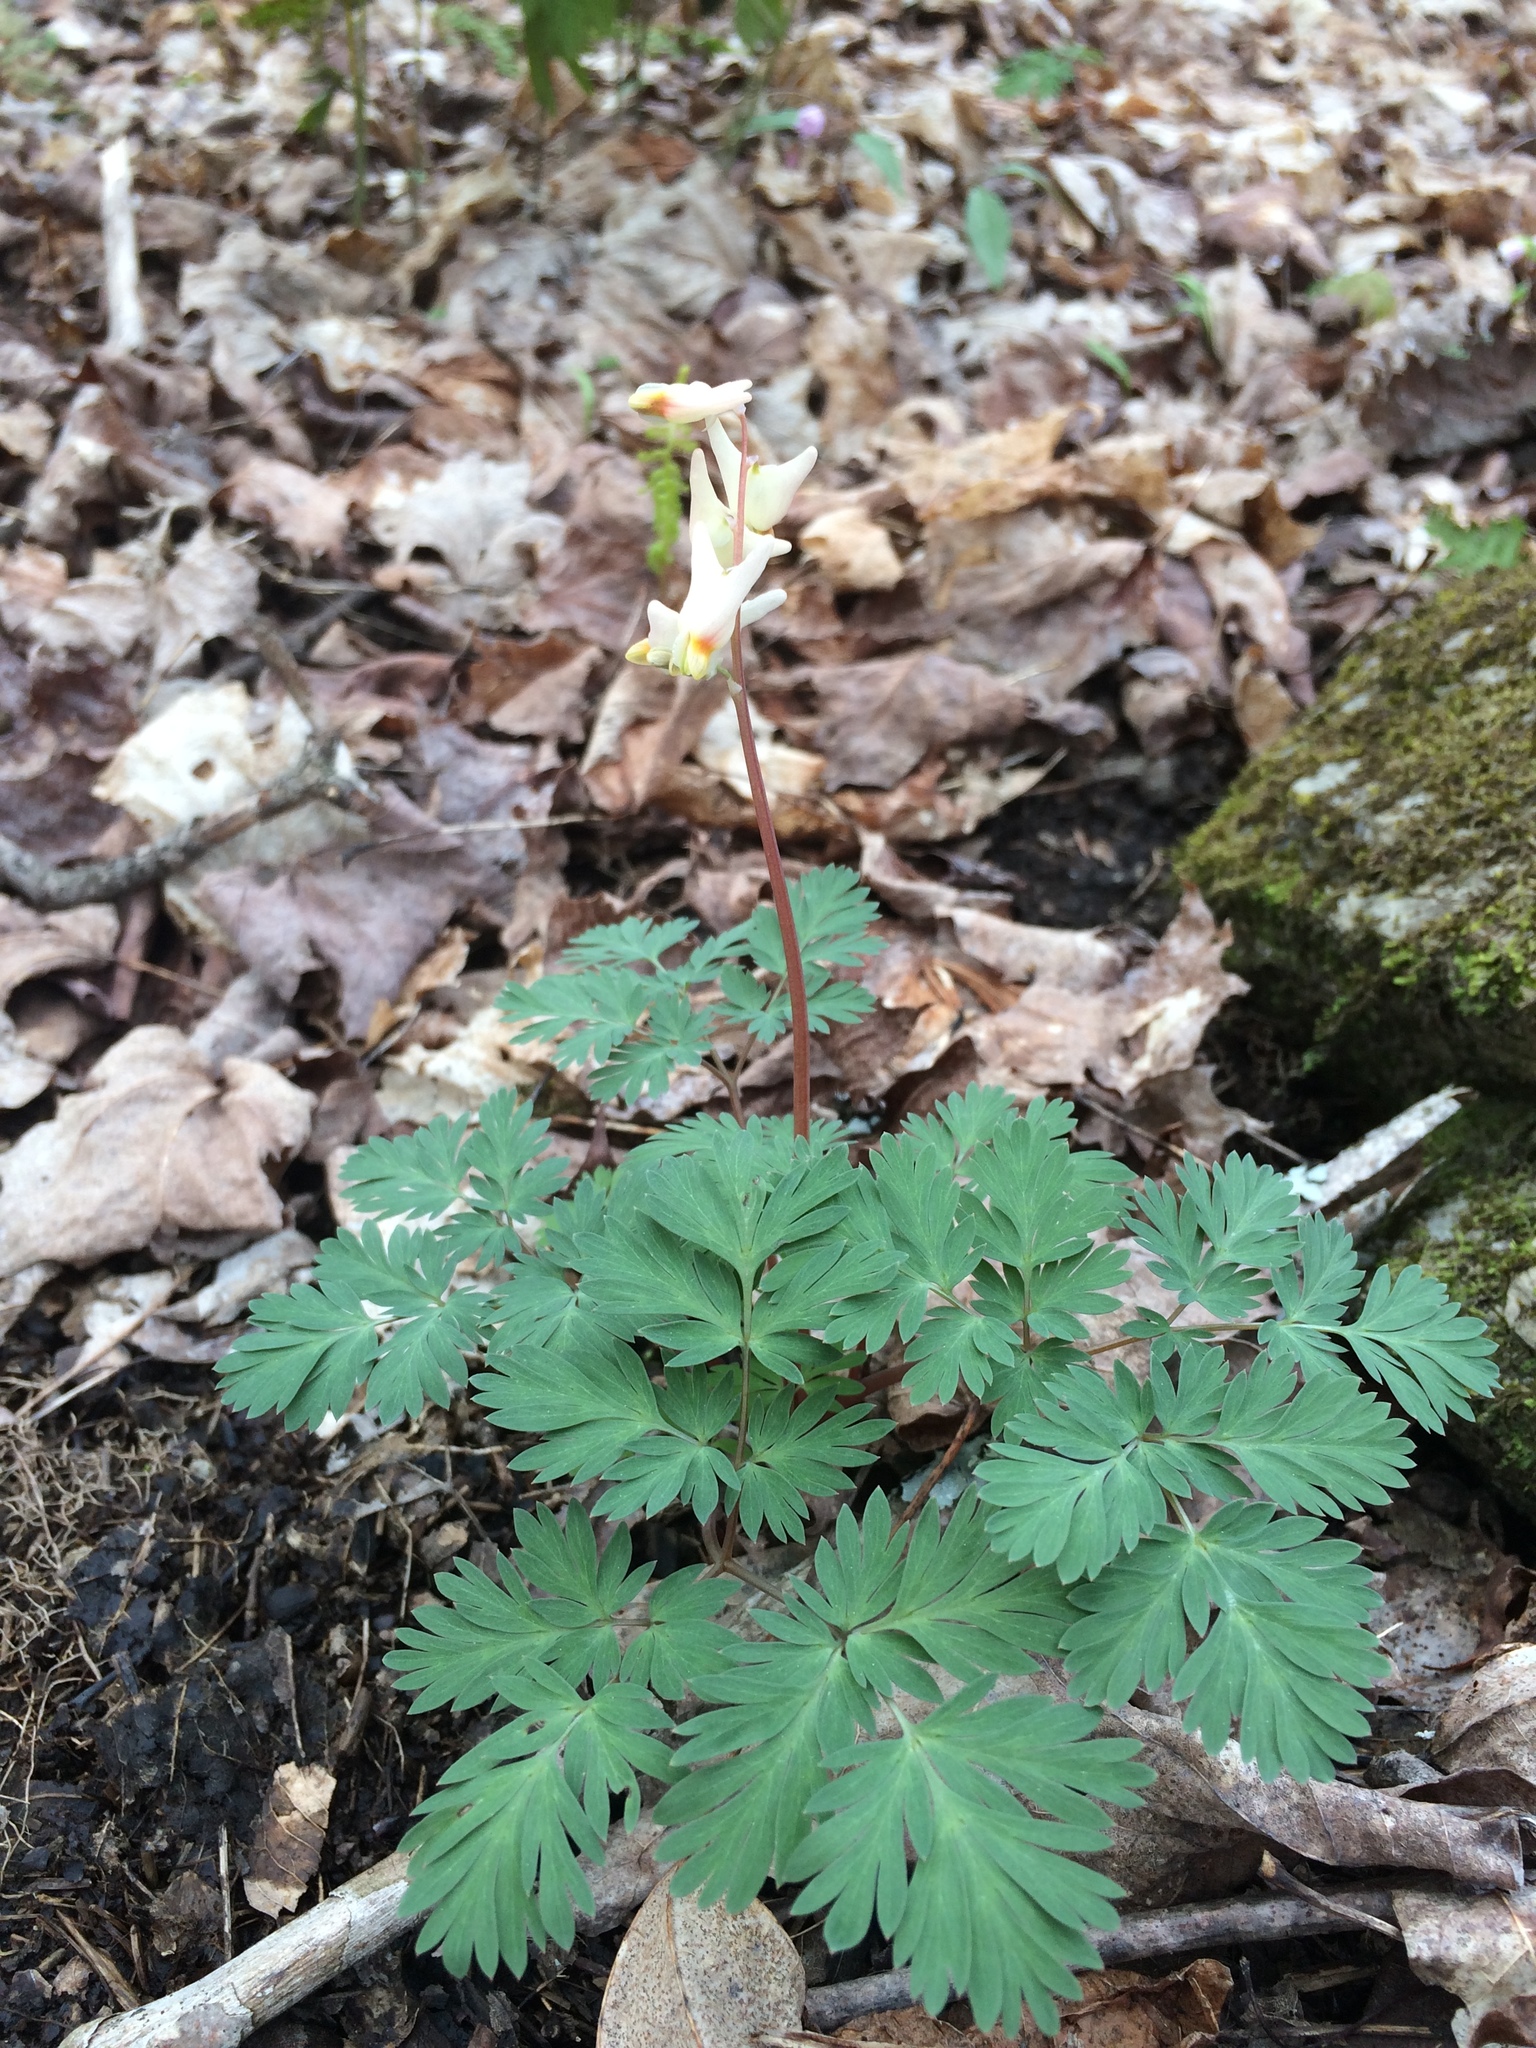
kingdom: Plantae
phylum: Tracheophyta
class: Magnoliopsida
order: Ranunculales
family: Papaveraceae
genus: Dicentra
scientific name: Dicentra cucullaria
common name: Dutchman's breeches
